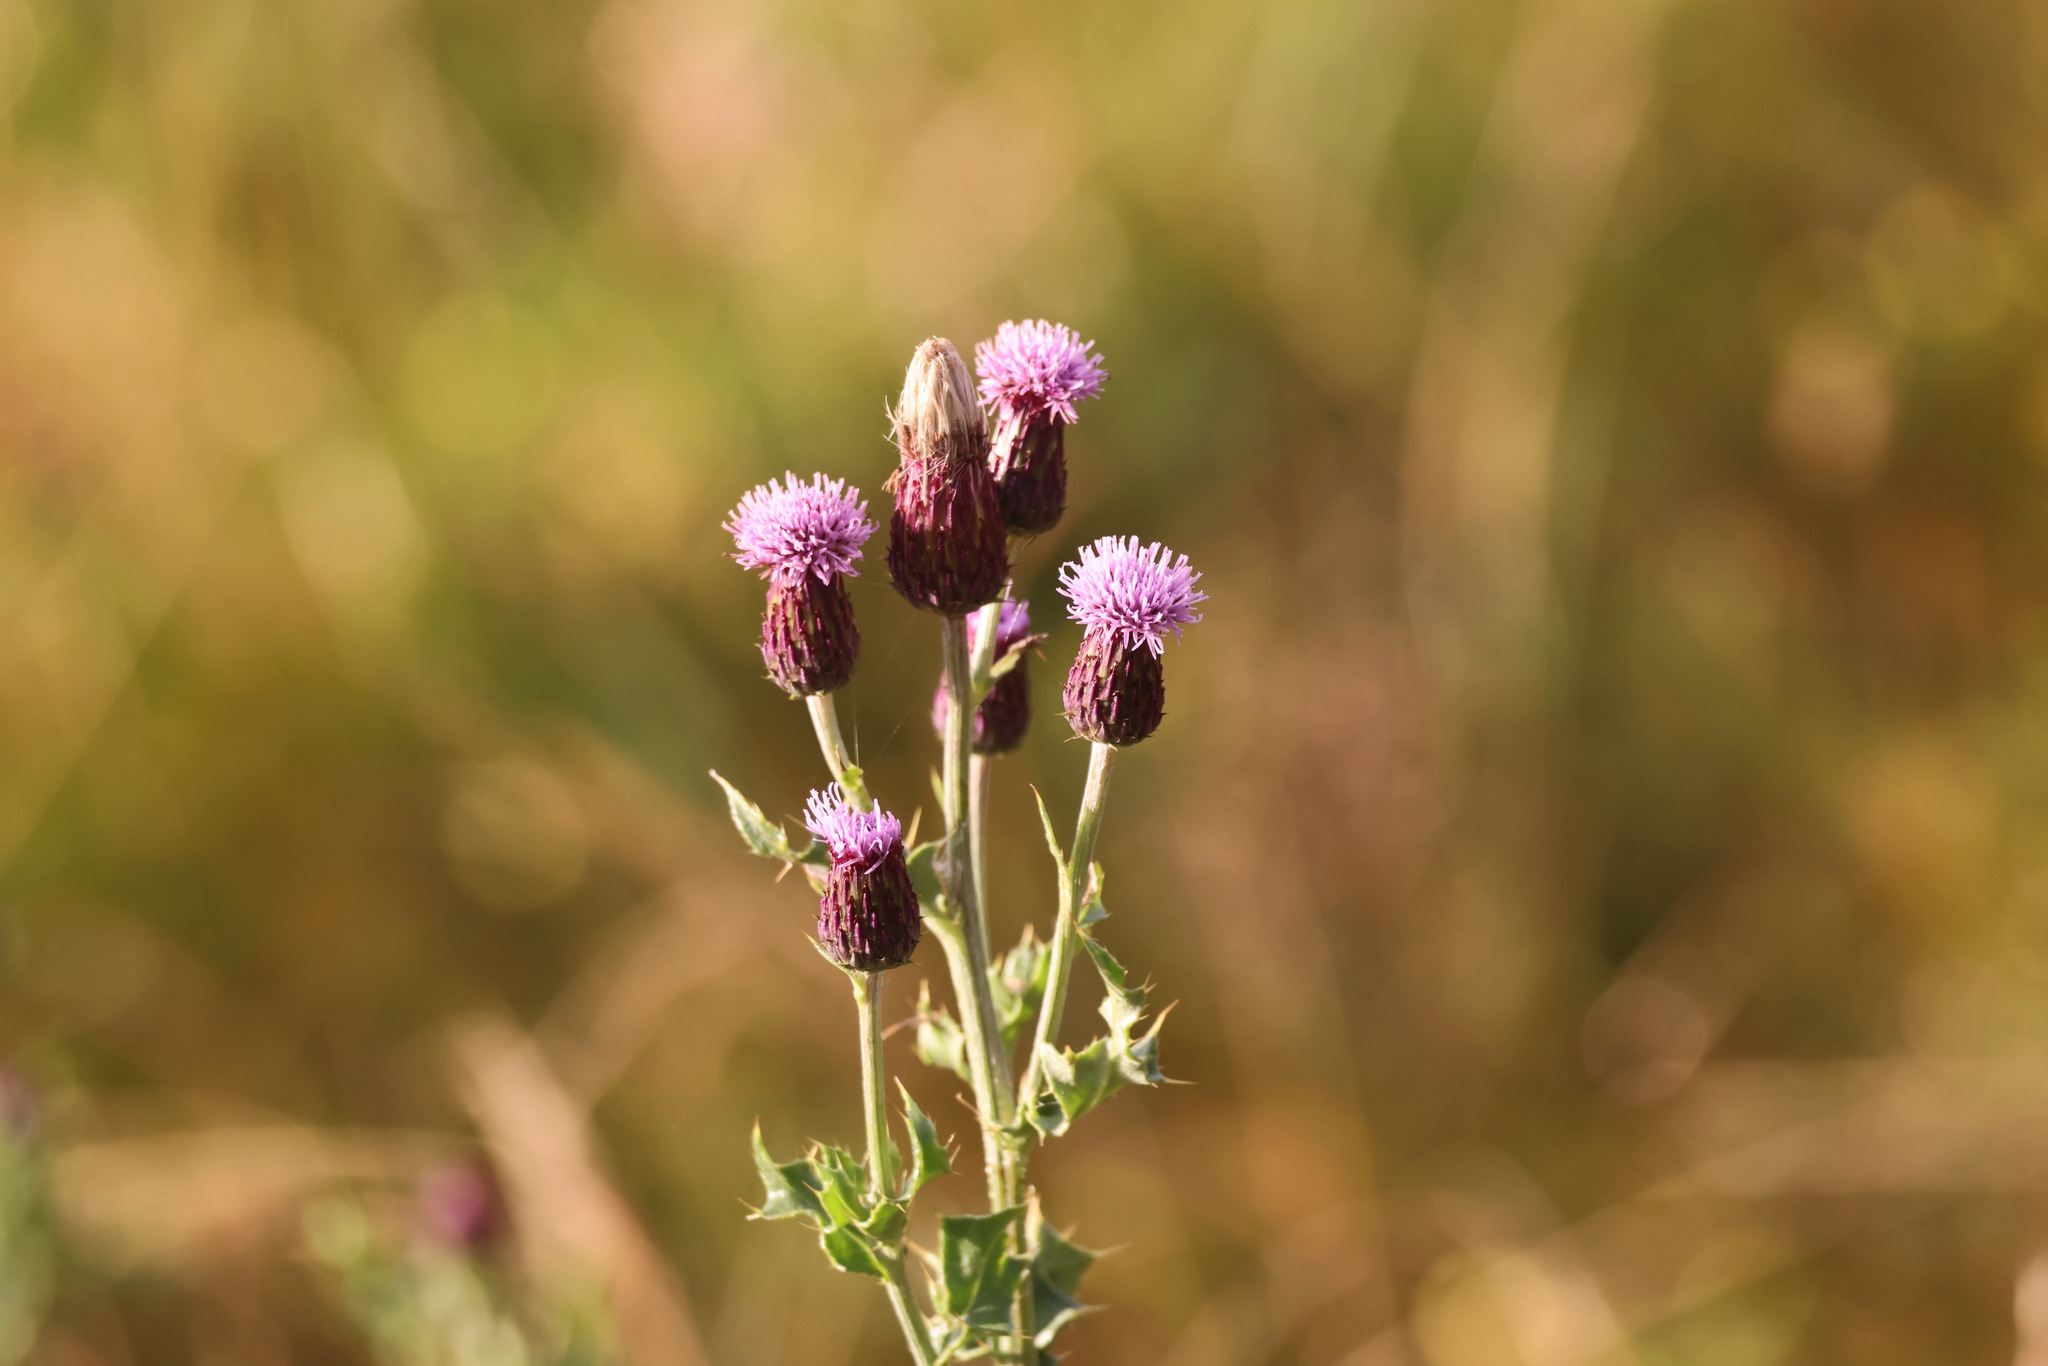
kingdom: Plantae
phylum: Tracheophyta
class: Magnoliopsida
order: Asterales
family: Asteraceae
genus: Cirsium
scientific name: Cirsium arvense
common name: Creeping thistle
